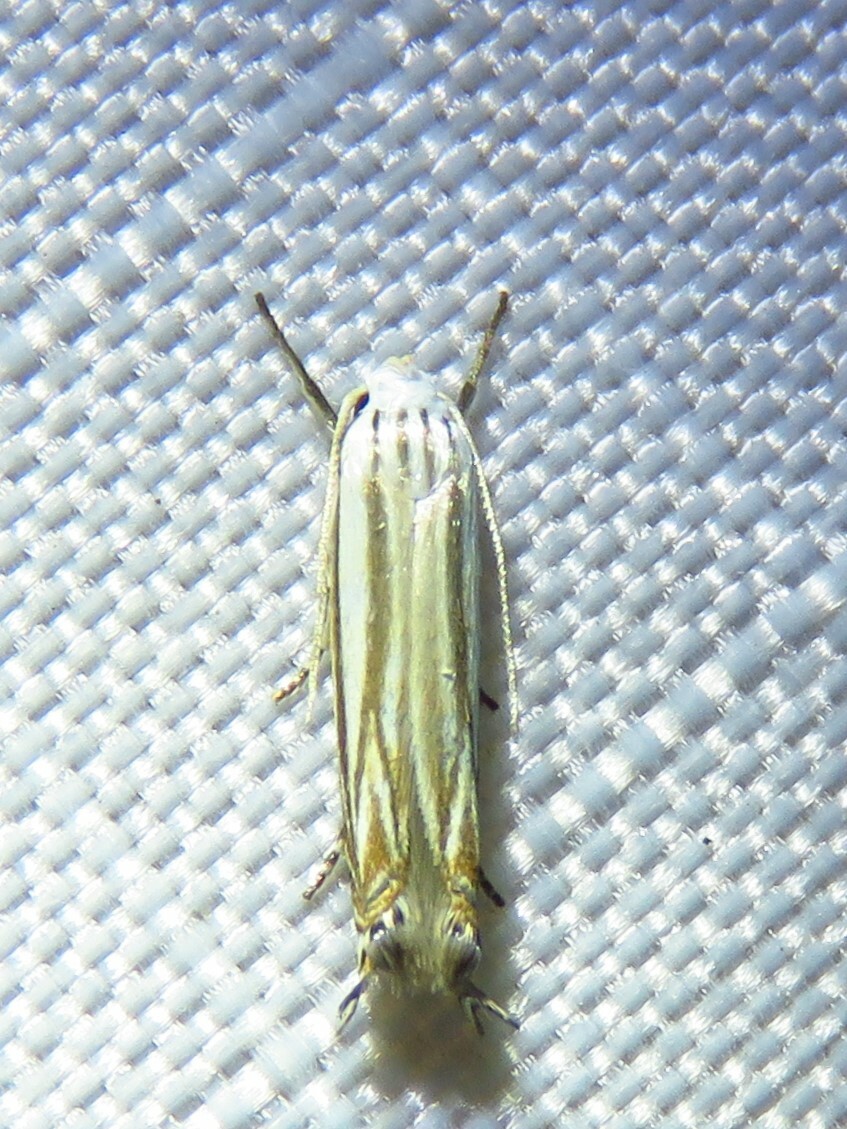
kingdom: Animalia
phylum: Arthropoda
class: Insecta
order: Lepidoptera
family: Gelechiidae
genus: Polyhymno
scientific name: Polyhymno luteostrigella
